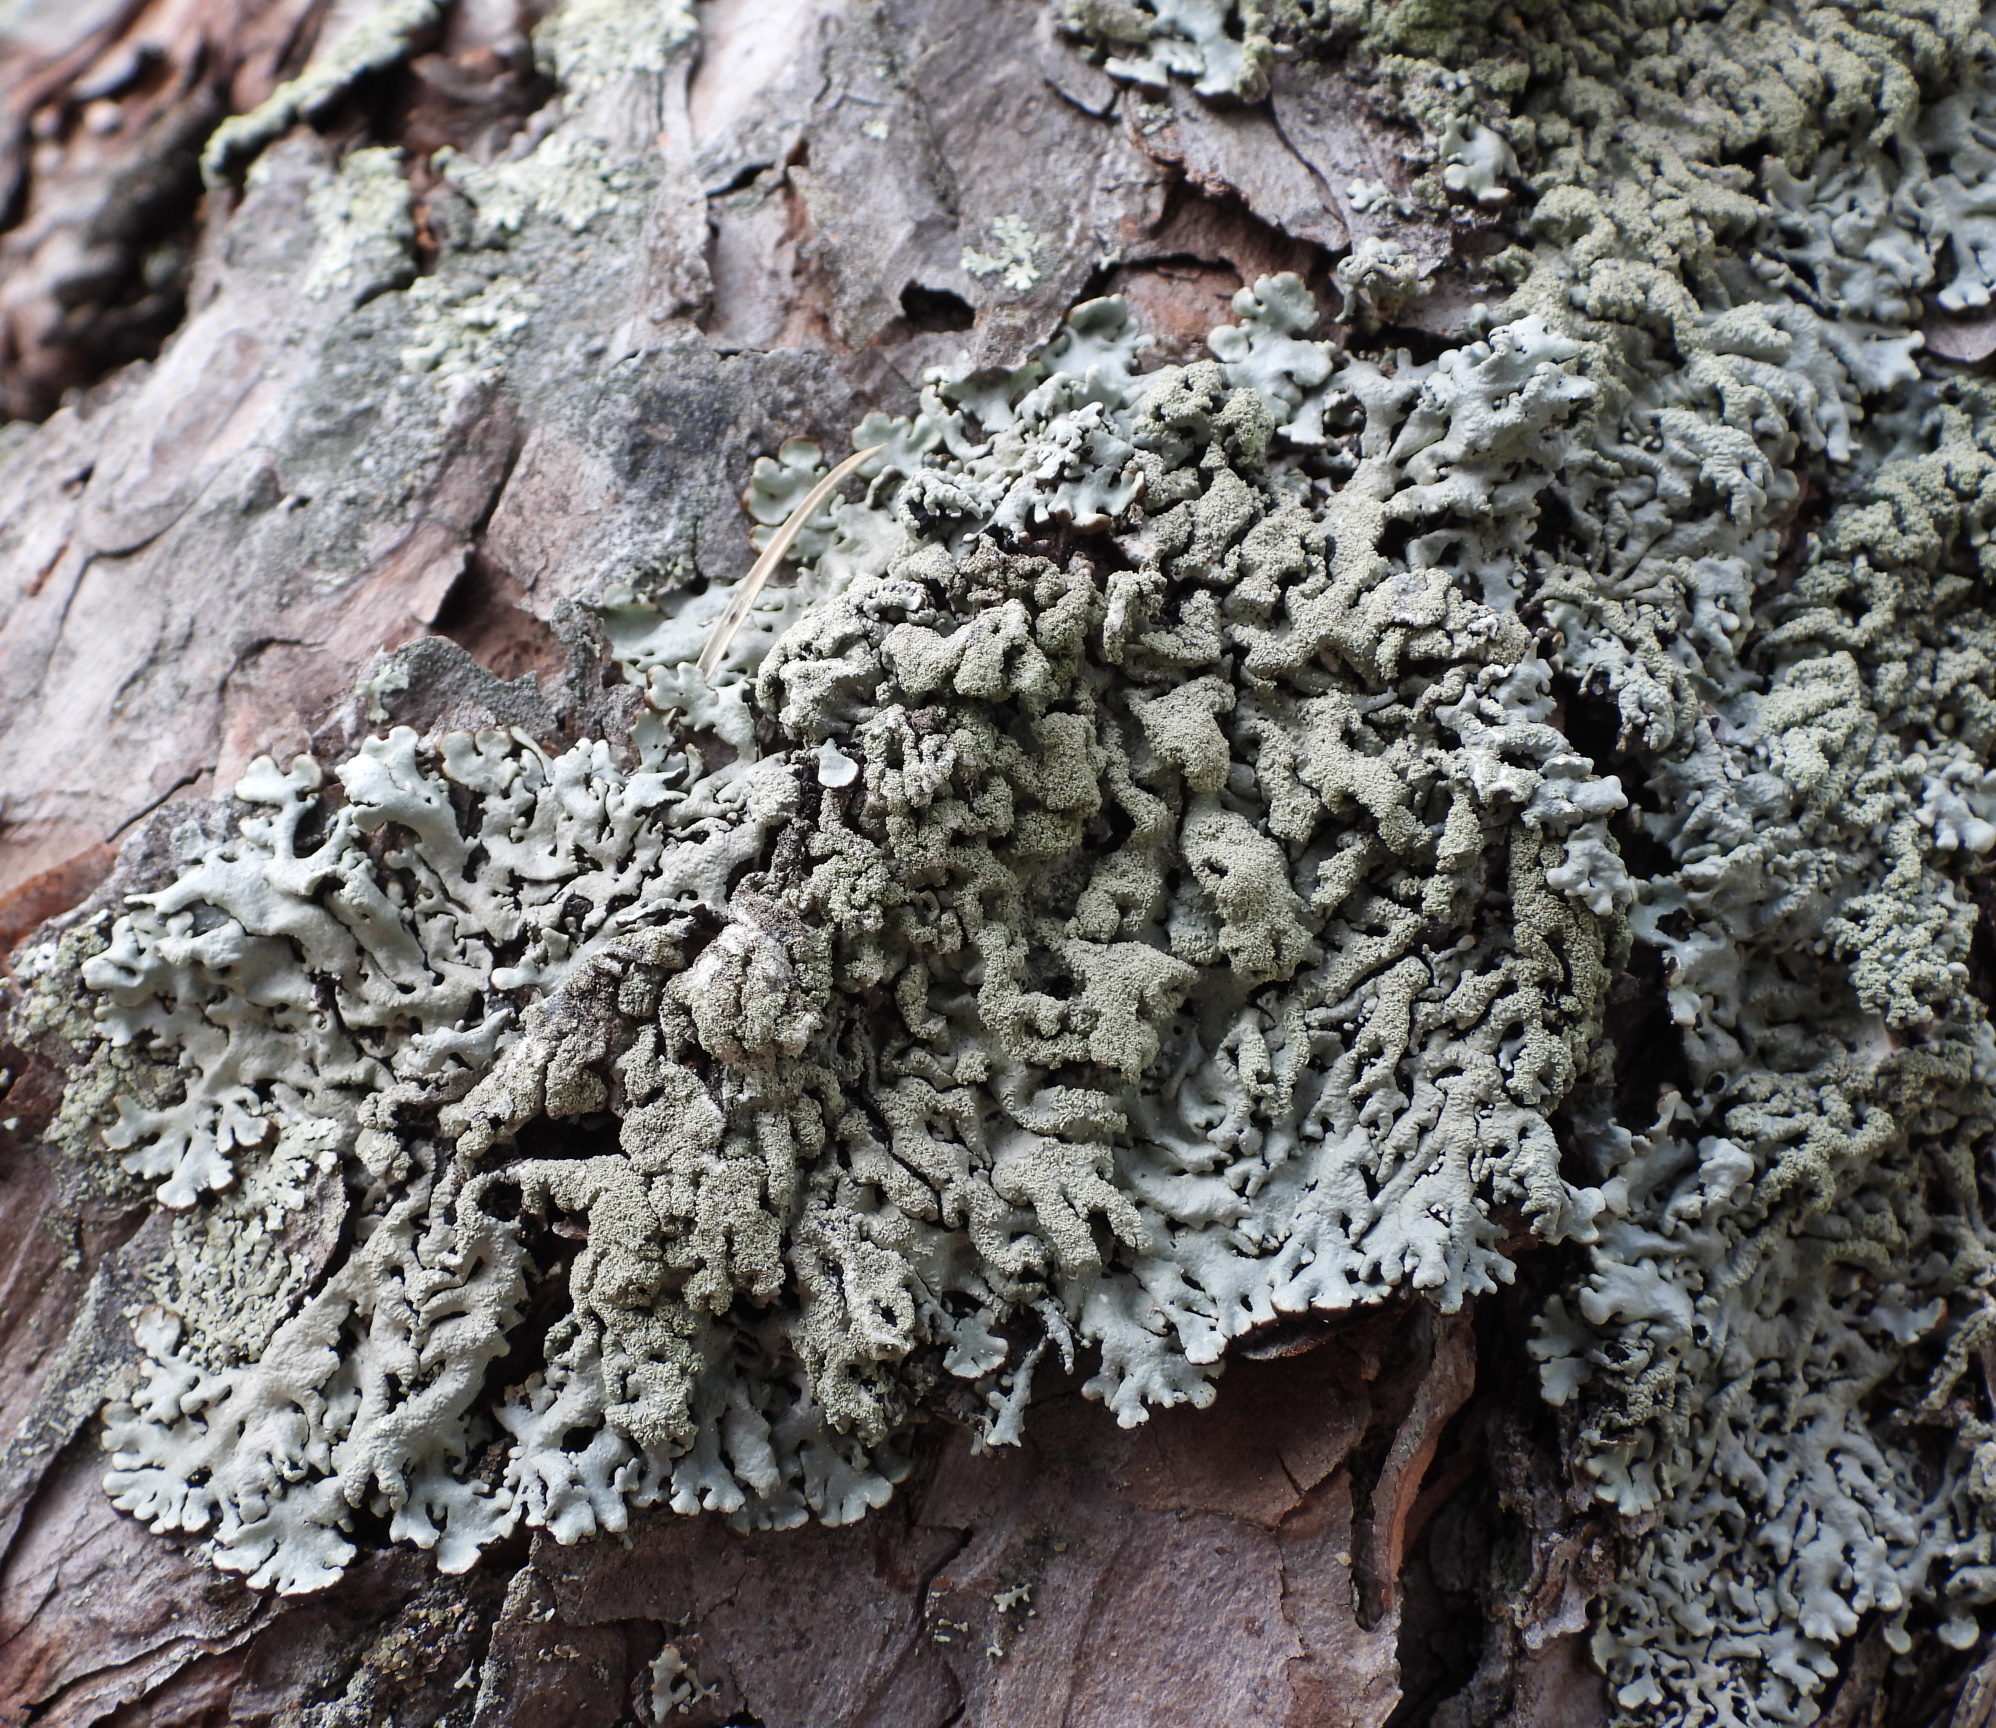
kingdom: Fungi
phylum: Ascomycota
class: Lecanoromycetes
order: Lecanorales
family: Parmeliaceae
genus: Hypogymnia
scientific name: Hypogymnia farinacea
